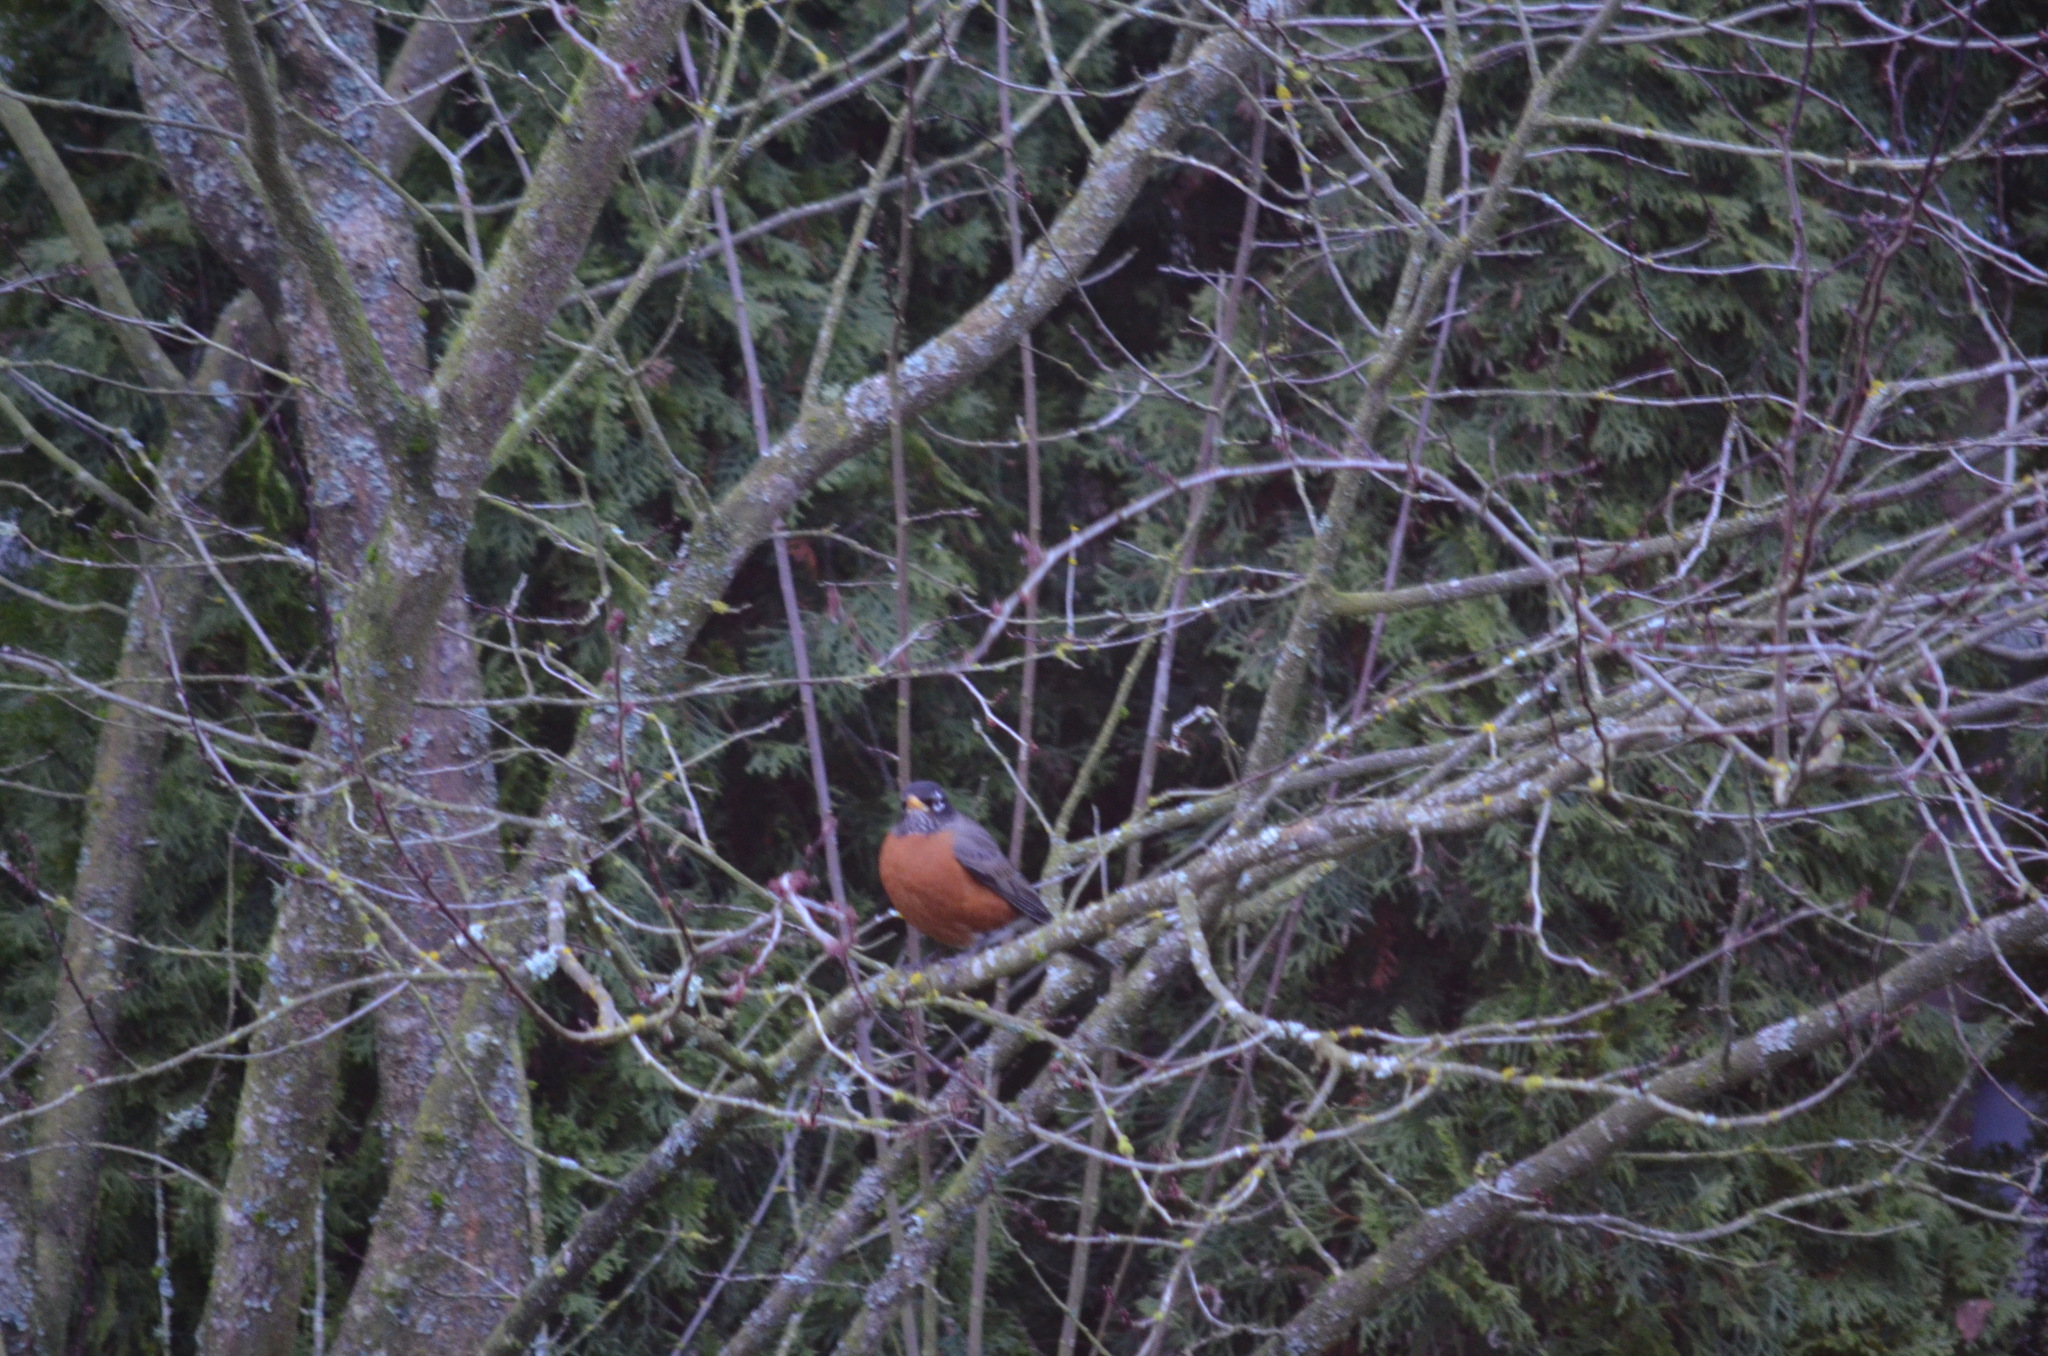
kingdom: Animalia
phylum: Chordata
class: Aves
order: Passeriformes
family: Turdidae
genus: Turdus
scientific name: Turdus migratorius
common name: American robin
